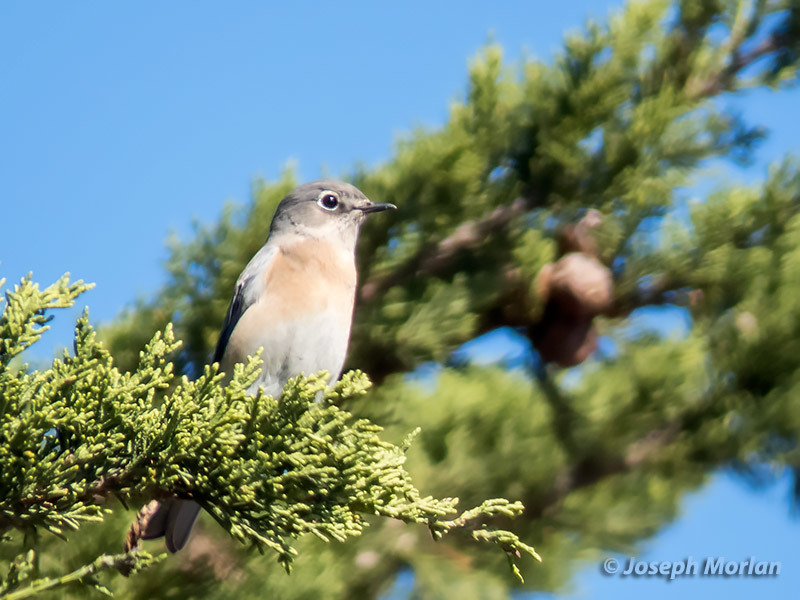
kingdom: Animalia
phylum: Chordata
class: Aves
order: Passeriformes
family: Turdidae
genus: Sialia
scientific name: Sialia mexicana
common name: Western bluebird
